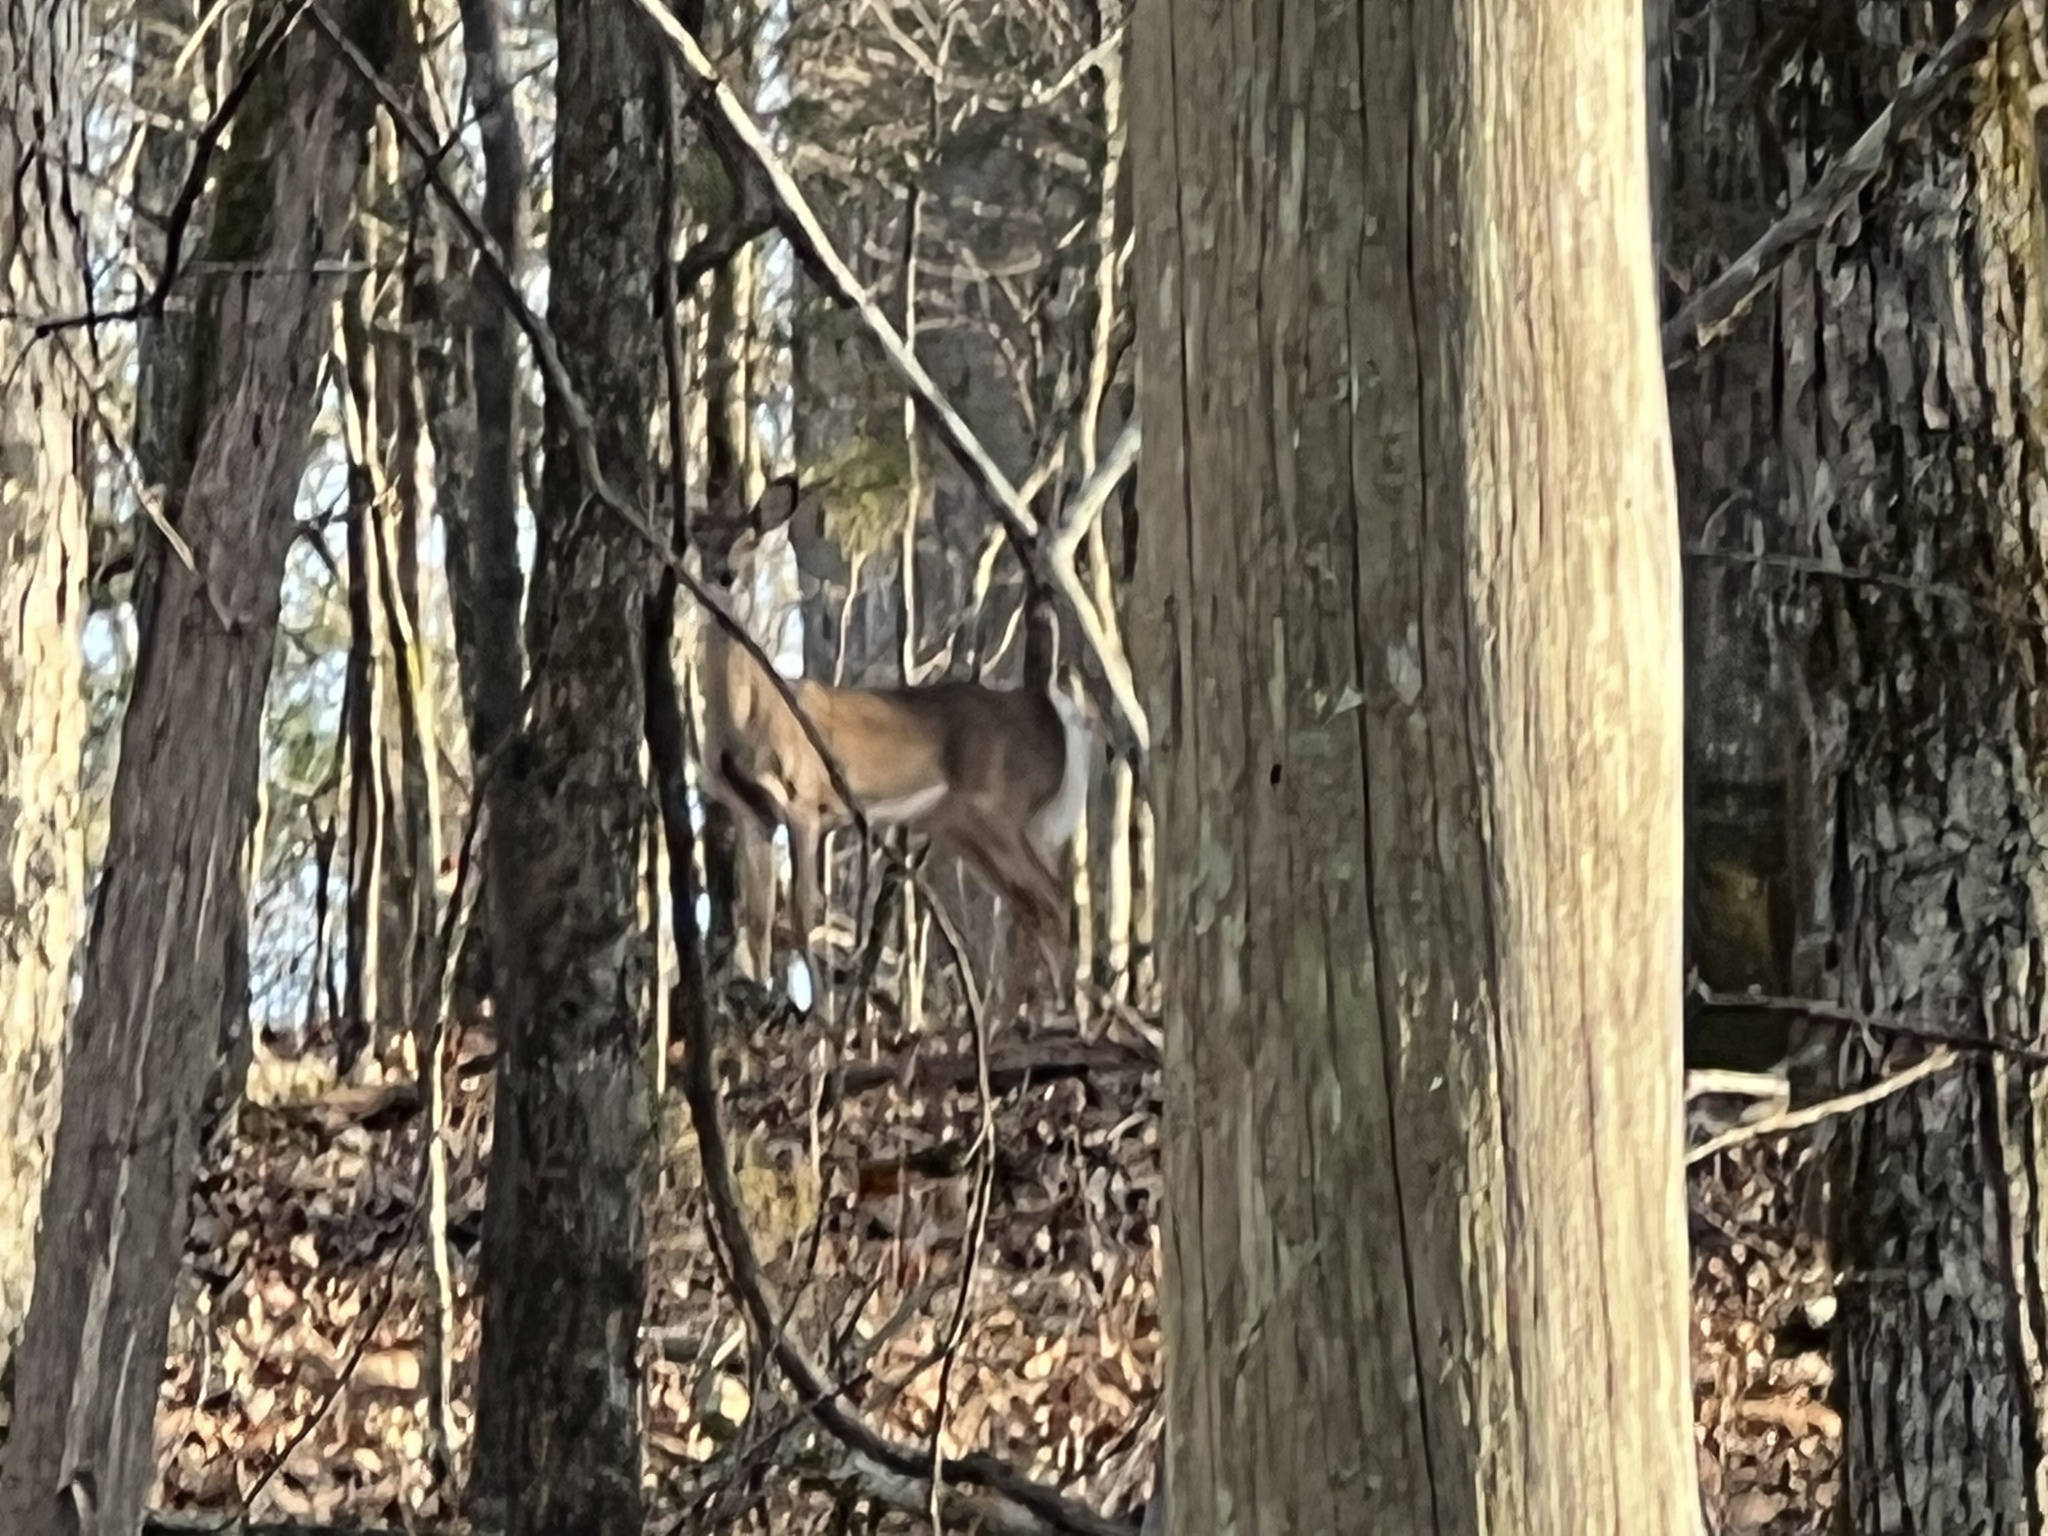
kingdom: Animalia
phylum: Chordata
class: Mammalia
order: Artiodactyla
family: Cervidae
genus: Odocoileus
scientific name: Odocoileus virginianus
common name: White-tailed deer
